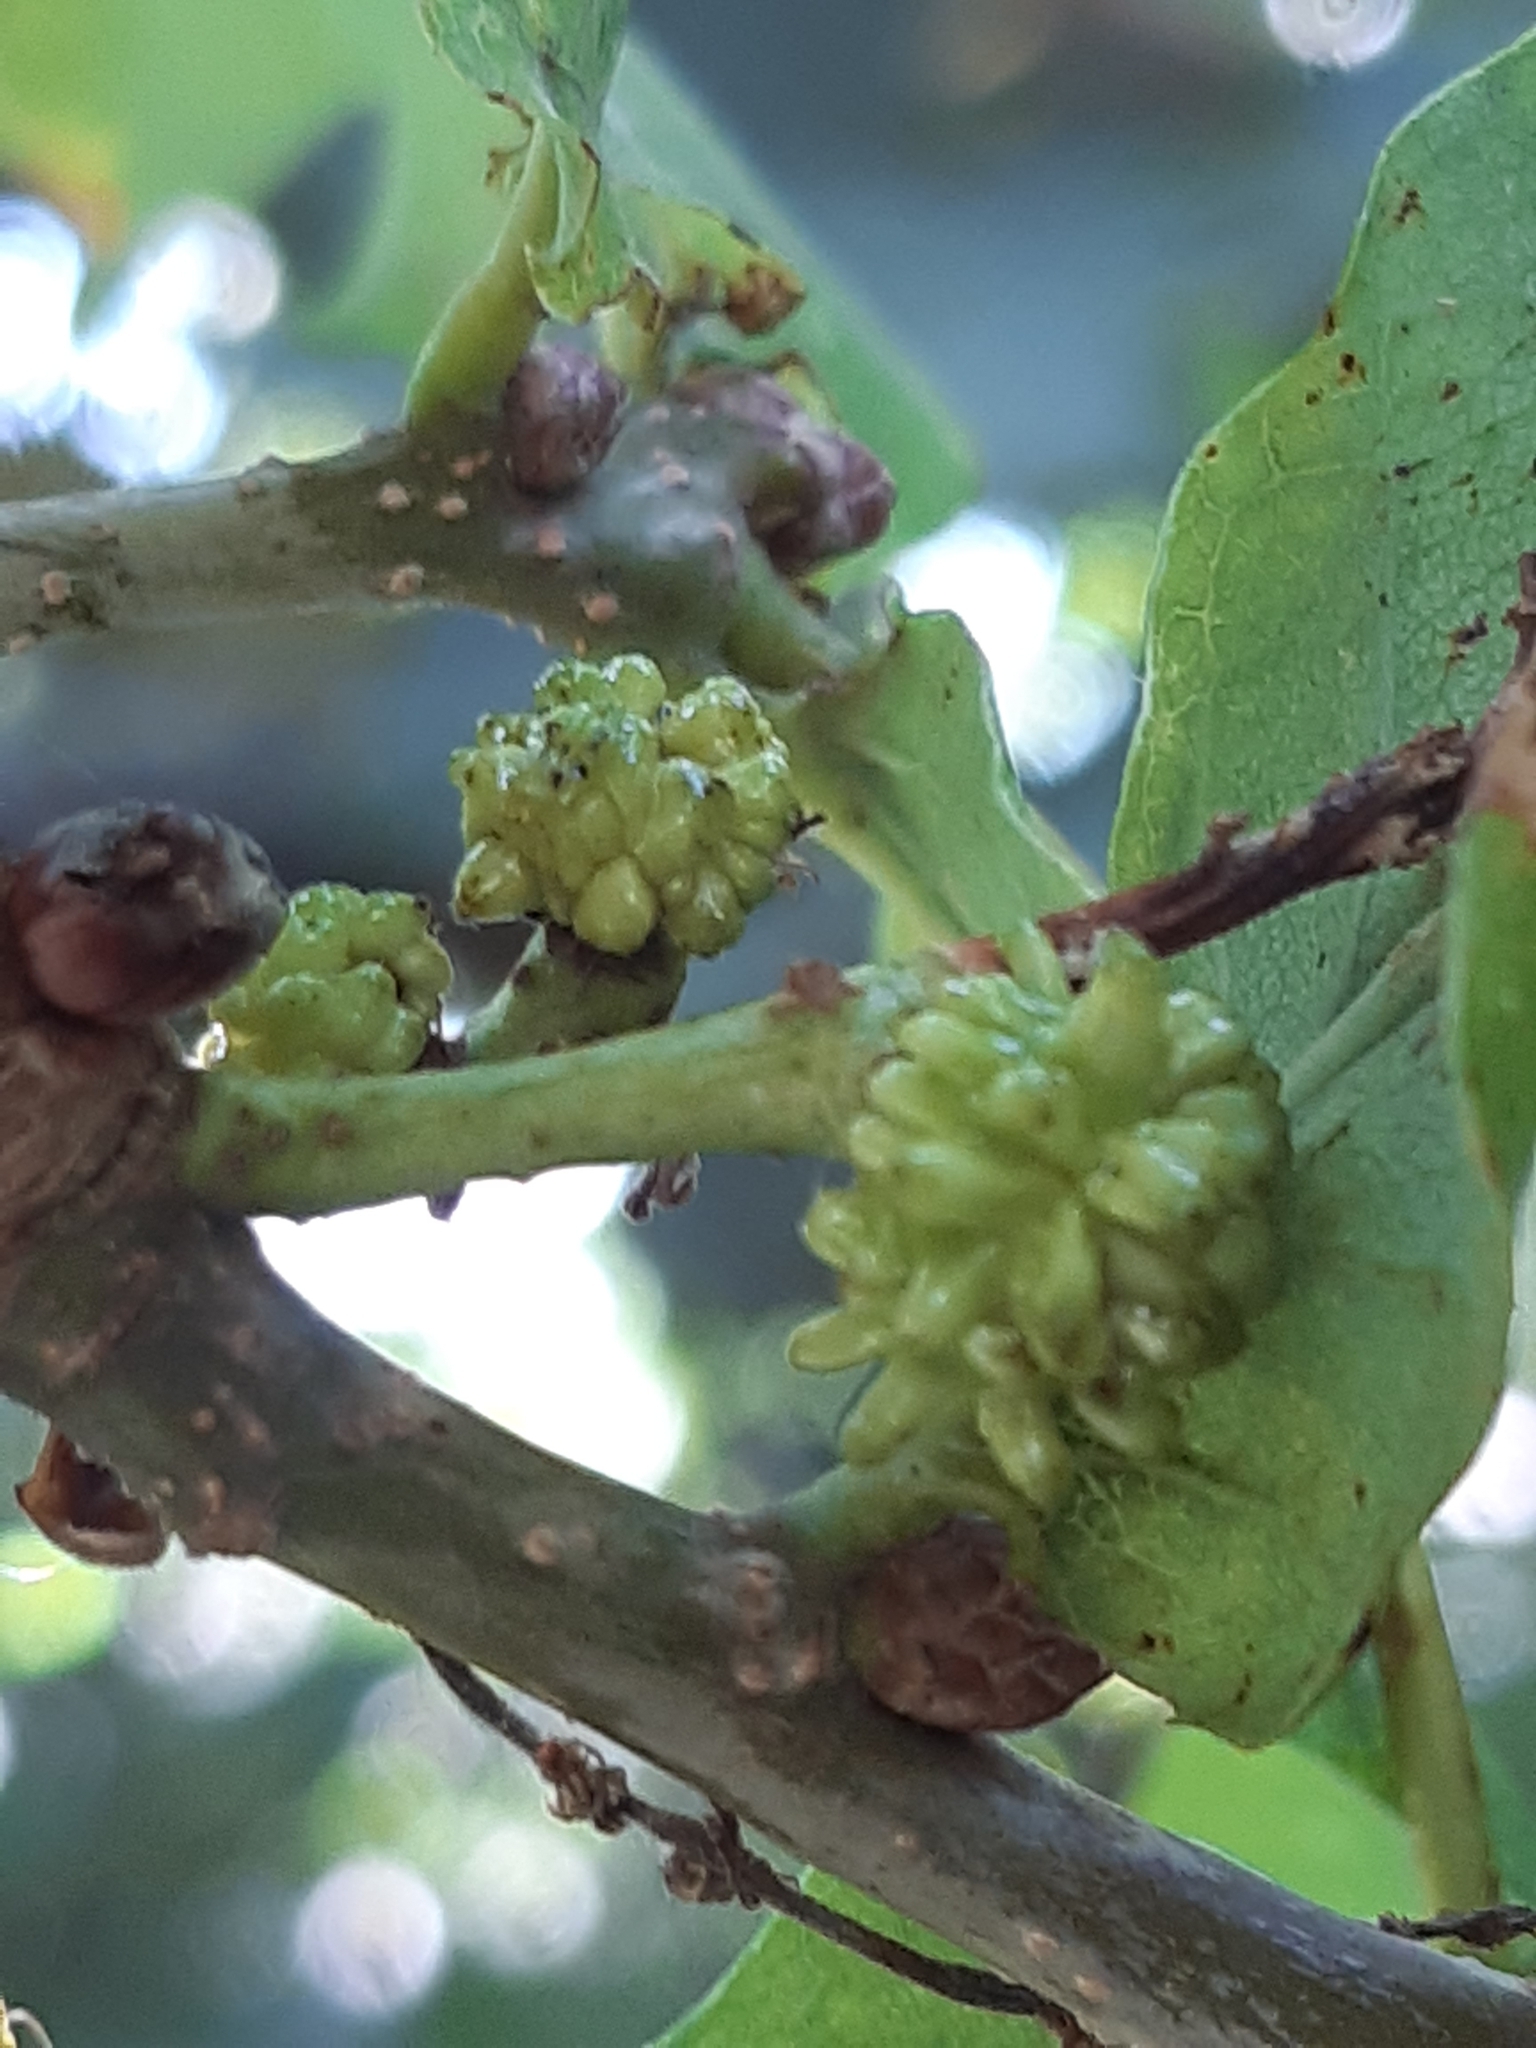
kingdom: Animalia
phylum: Arthropoda
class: Insecta
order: Hymenoptera
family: Cynipidae
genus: Andricus
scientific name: Andricus grossulariae
